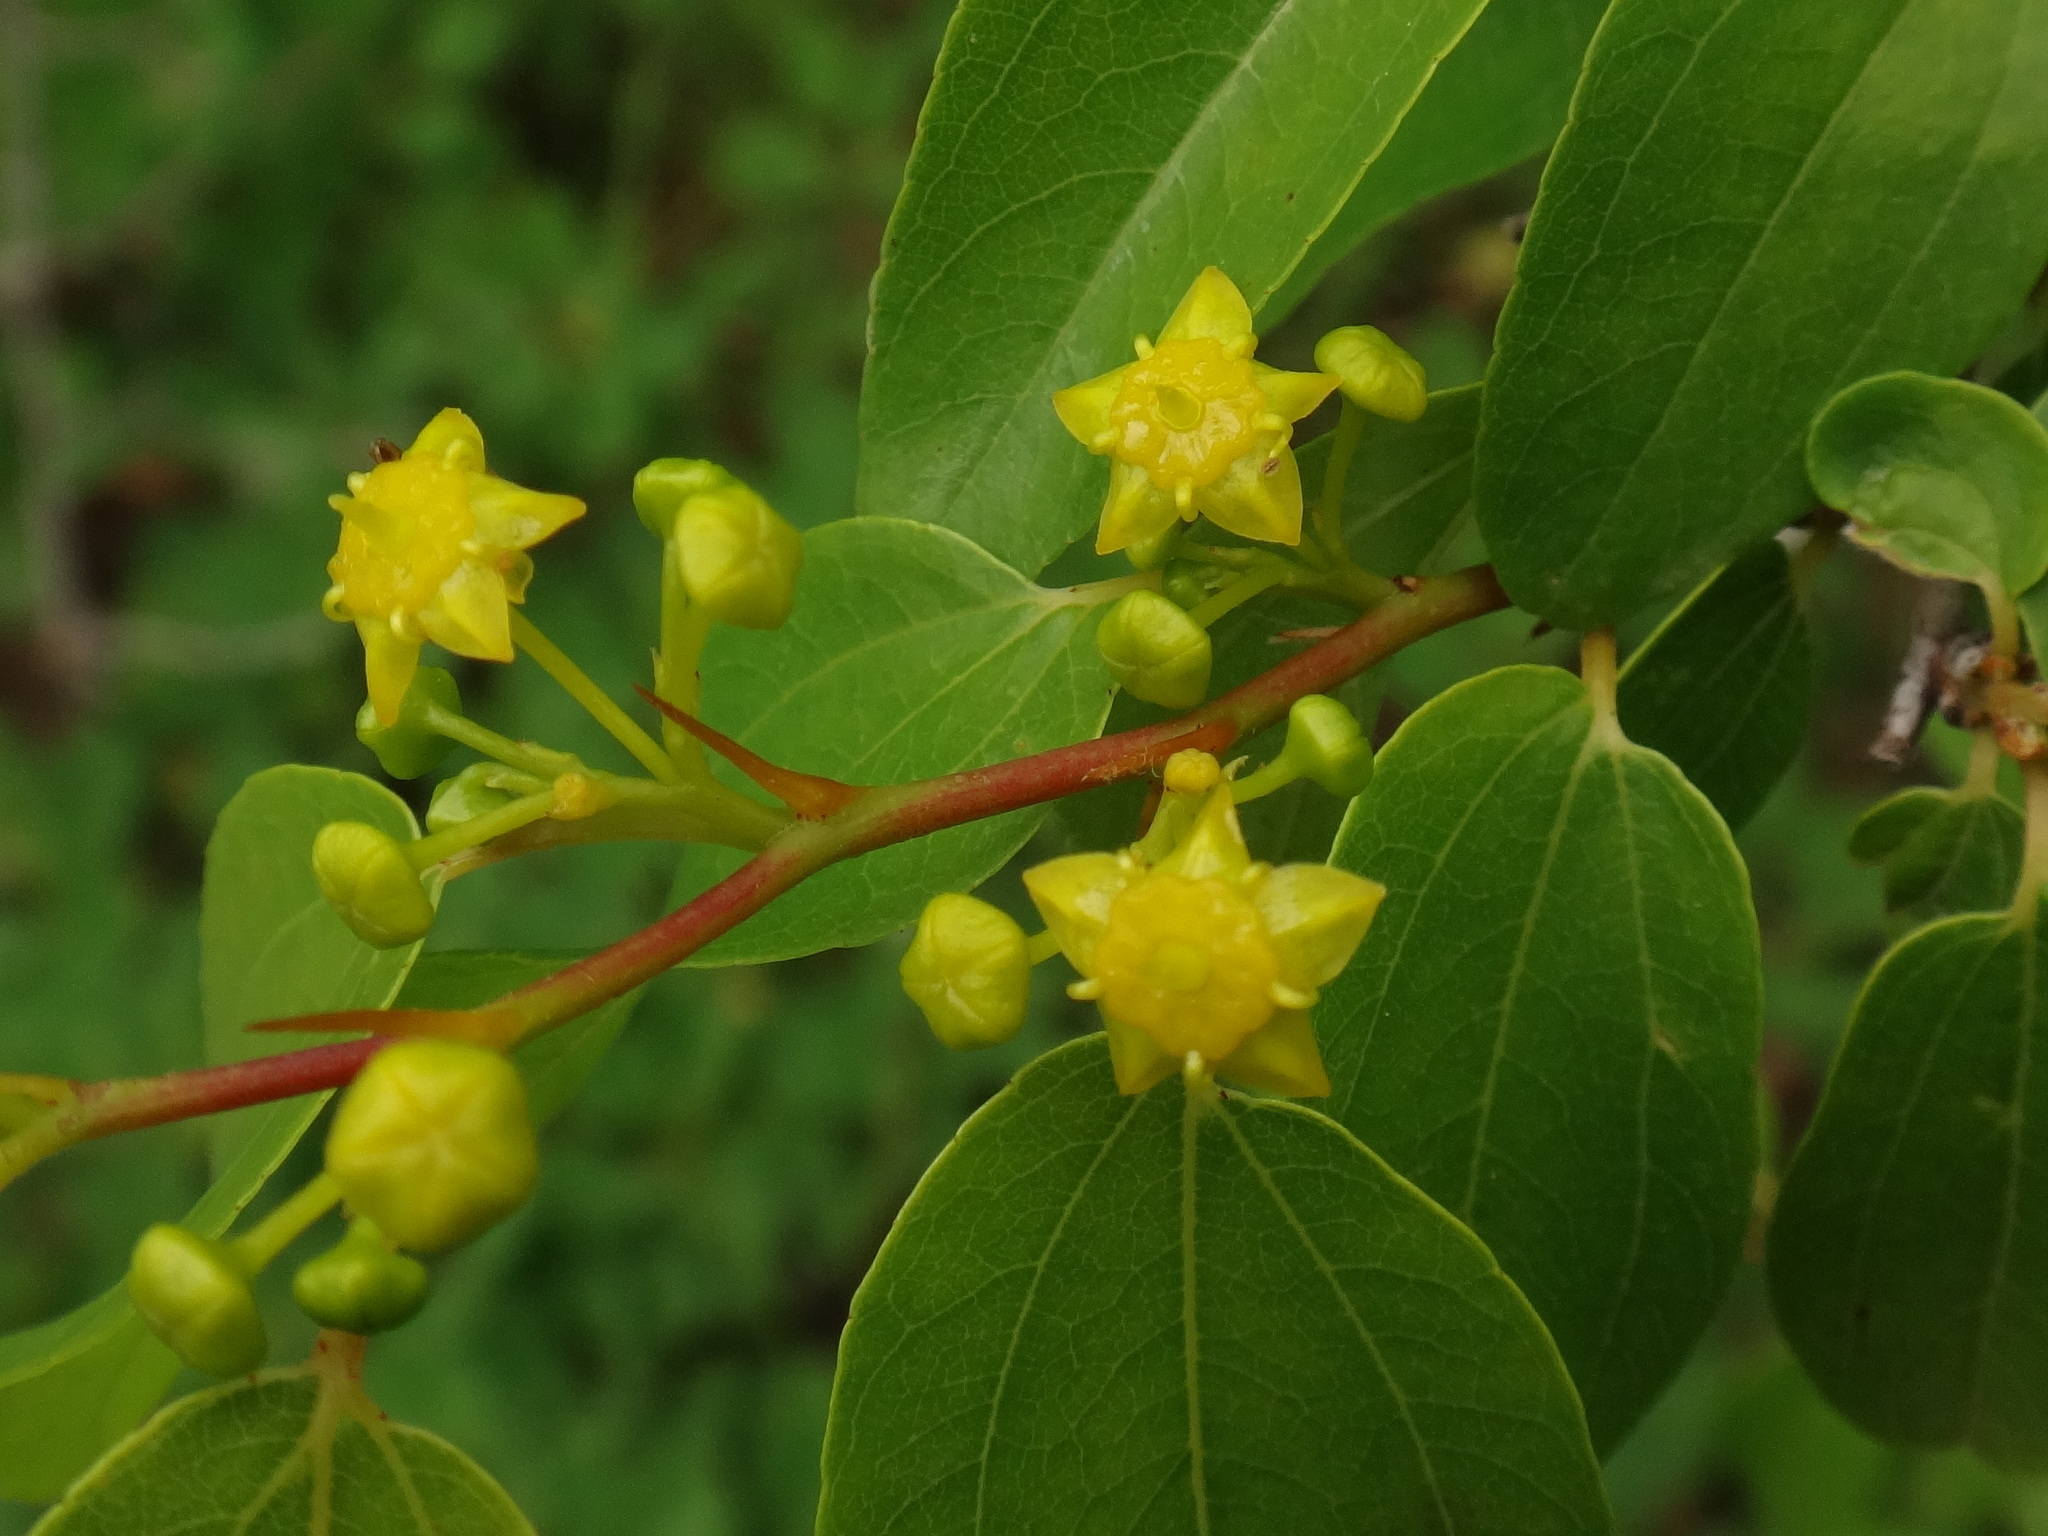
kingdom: Plantae
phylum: Tracheophyta
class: Magnoliopsida
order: Rosales
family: Rhamnaceae
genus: Paliurus
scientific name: Paliurus spina-christi
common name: Jeruselem thorn
